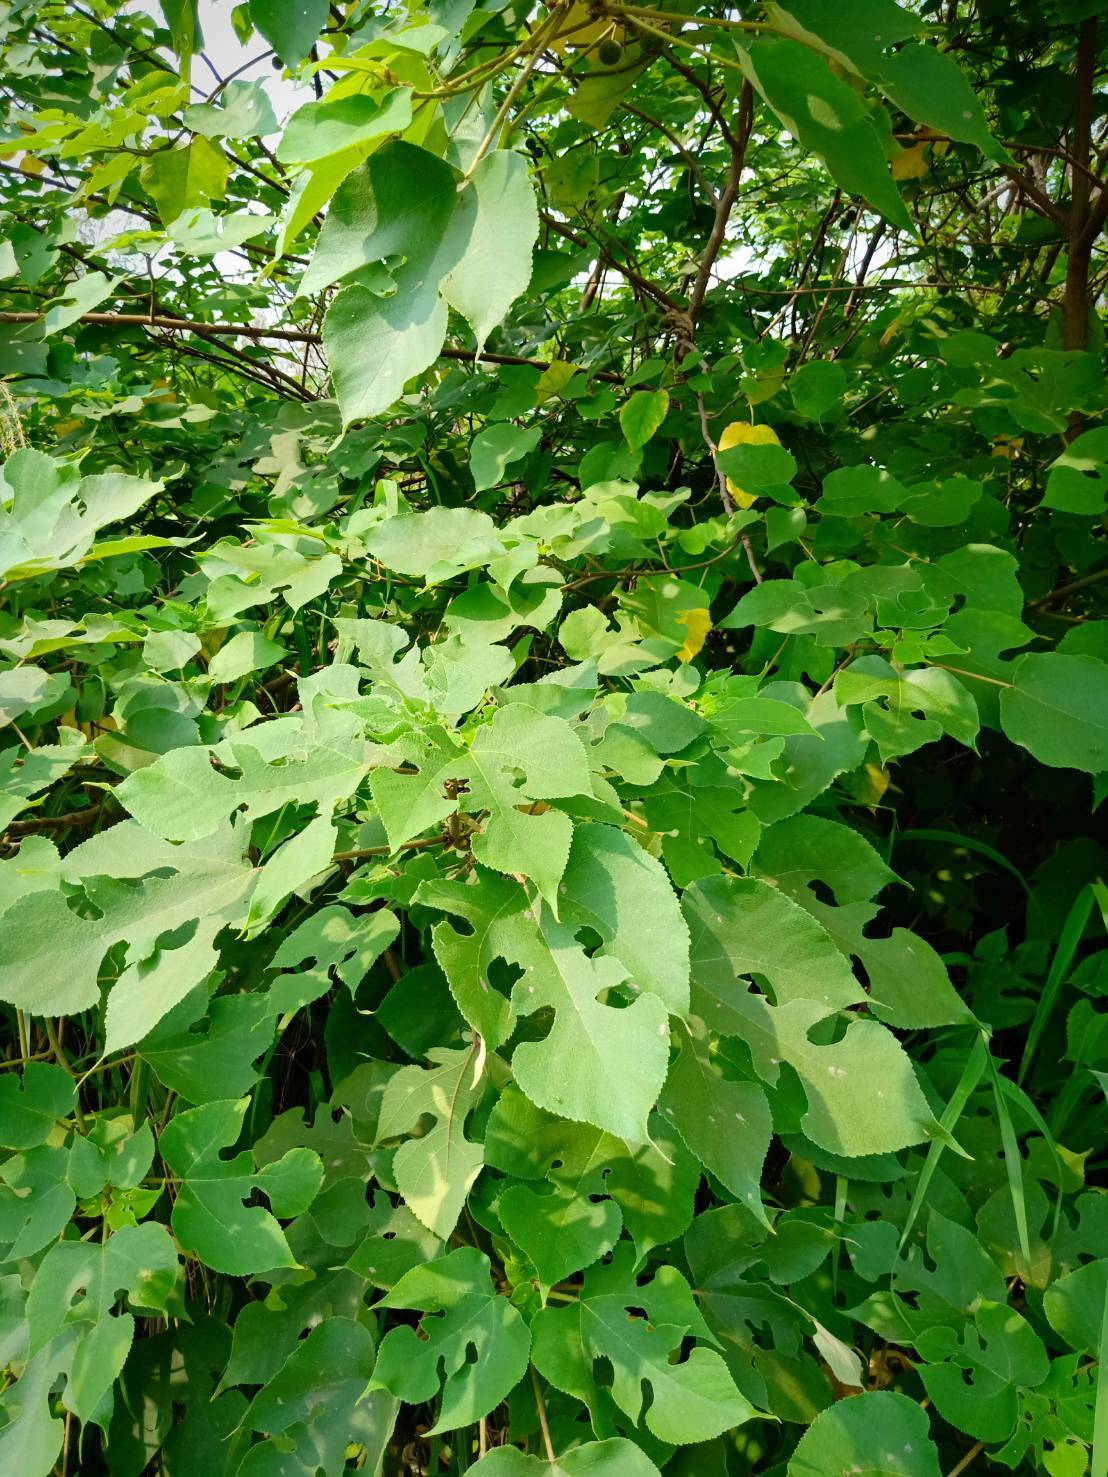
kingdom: Plantae
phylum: Tracheophyta
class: Magnoliopsida
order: Rosales
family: Moraceae
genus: Broussonetia
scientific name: Broussonetia papyrifera
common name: Paper mulberry
